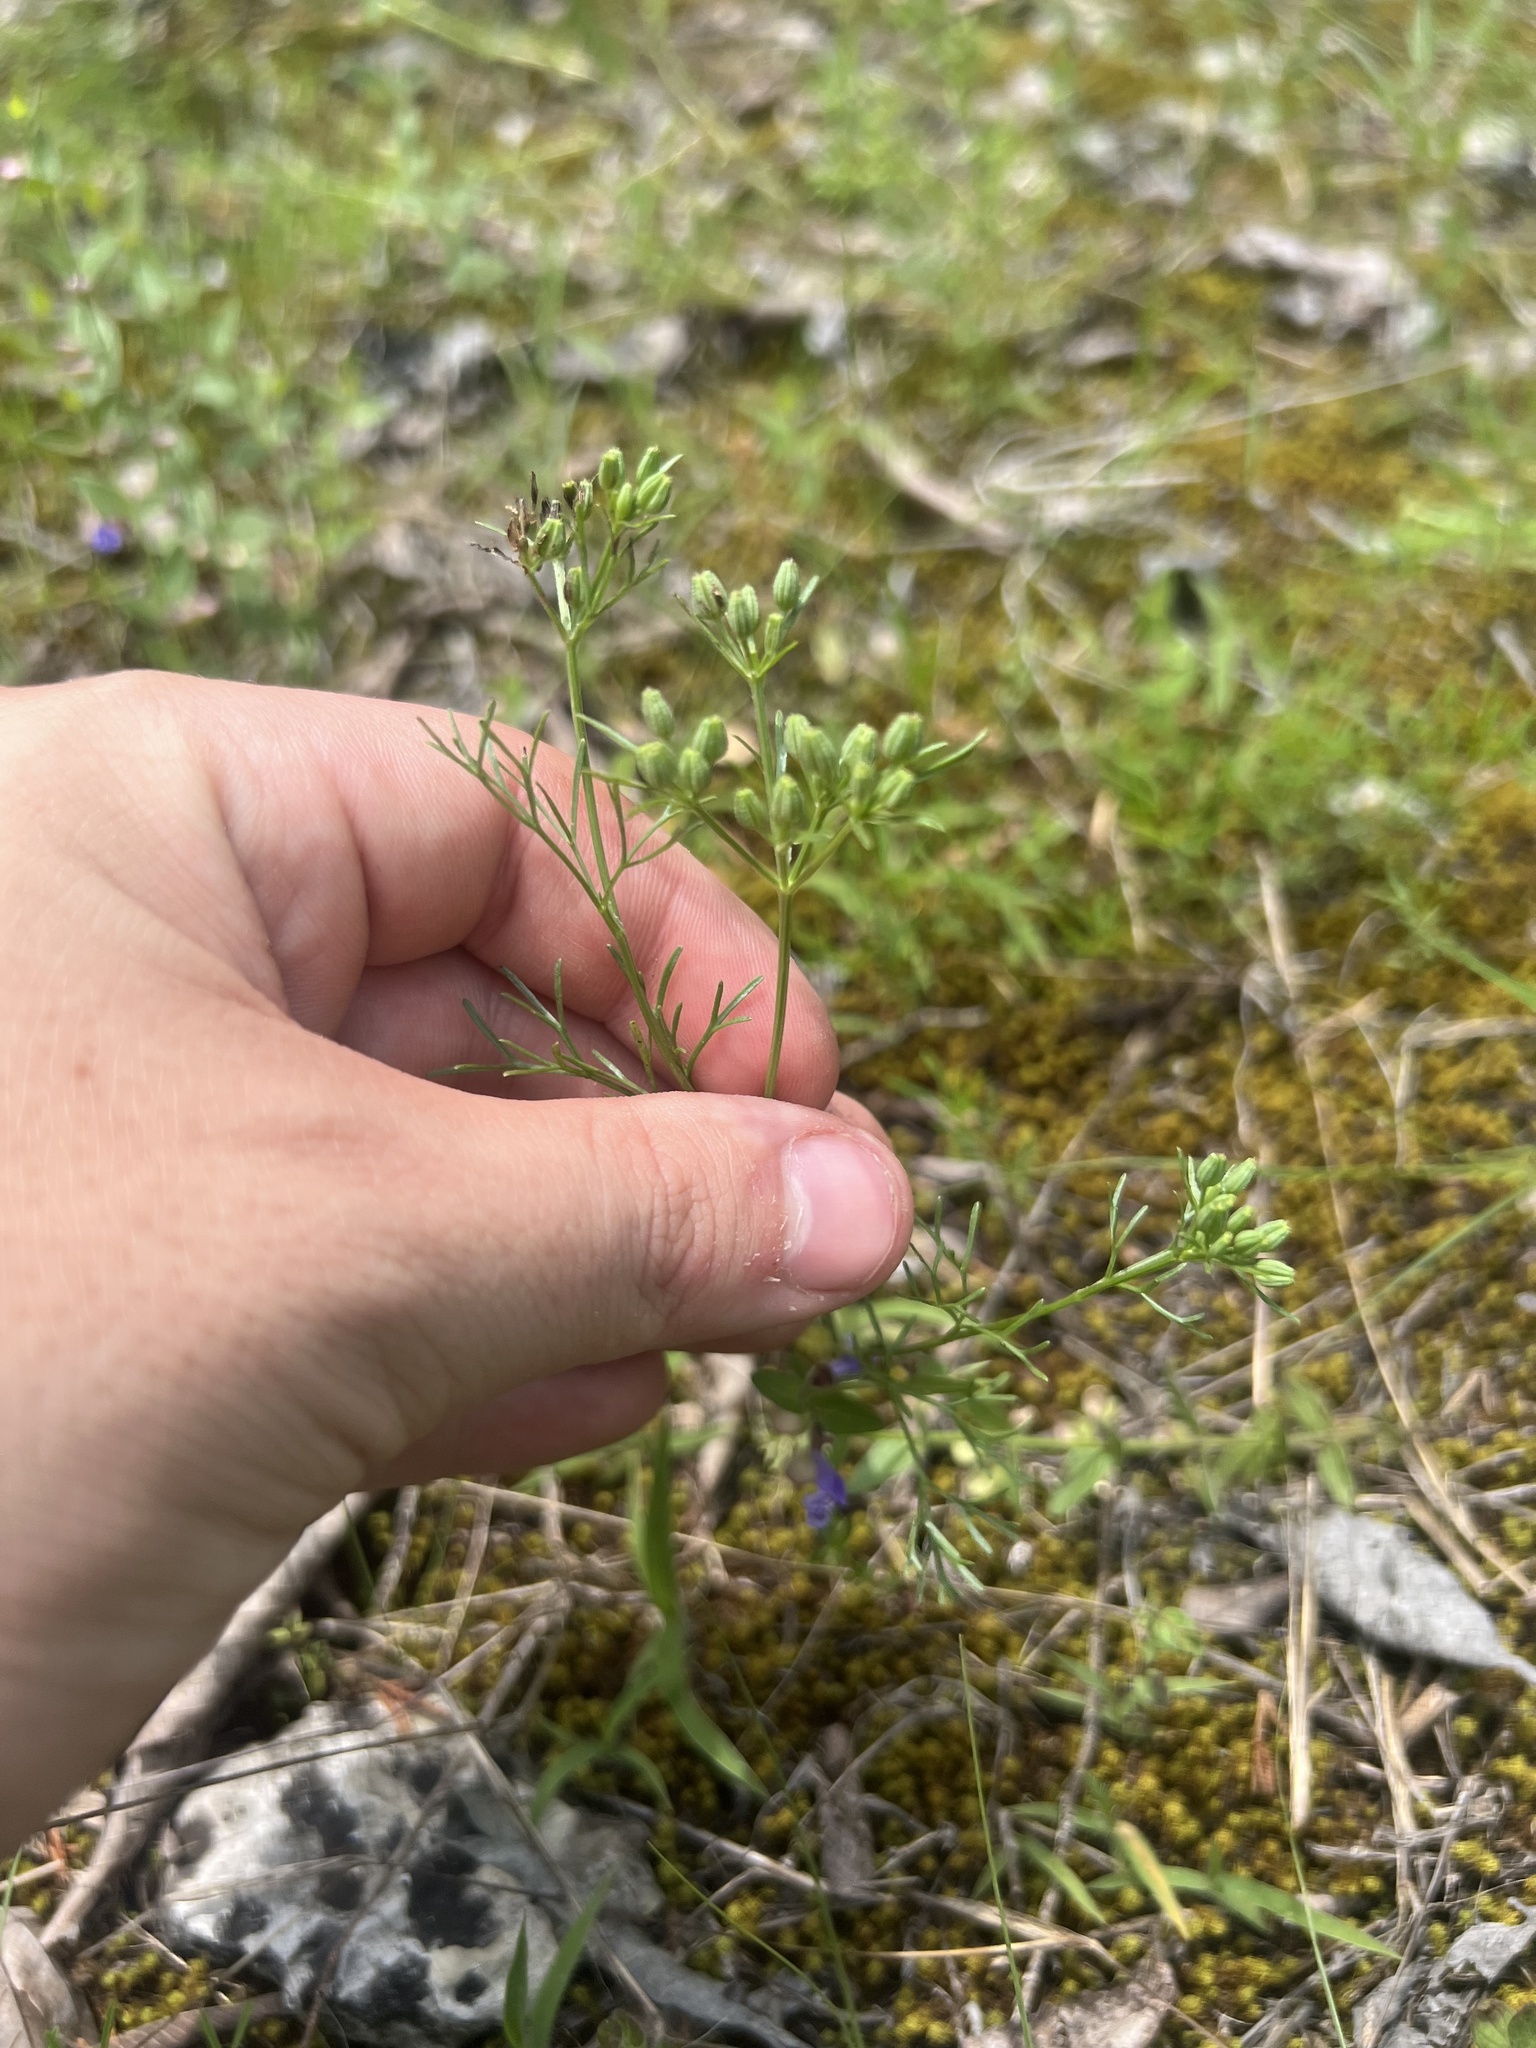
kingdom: Plantae
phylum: Tracheophyta
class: Magnoliopsida
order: Apiales
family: Apiaceae
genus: Ammoselinum
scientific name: Ammoselinum popei
